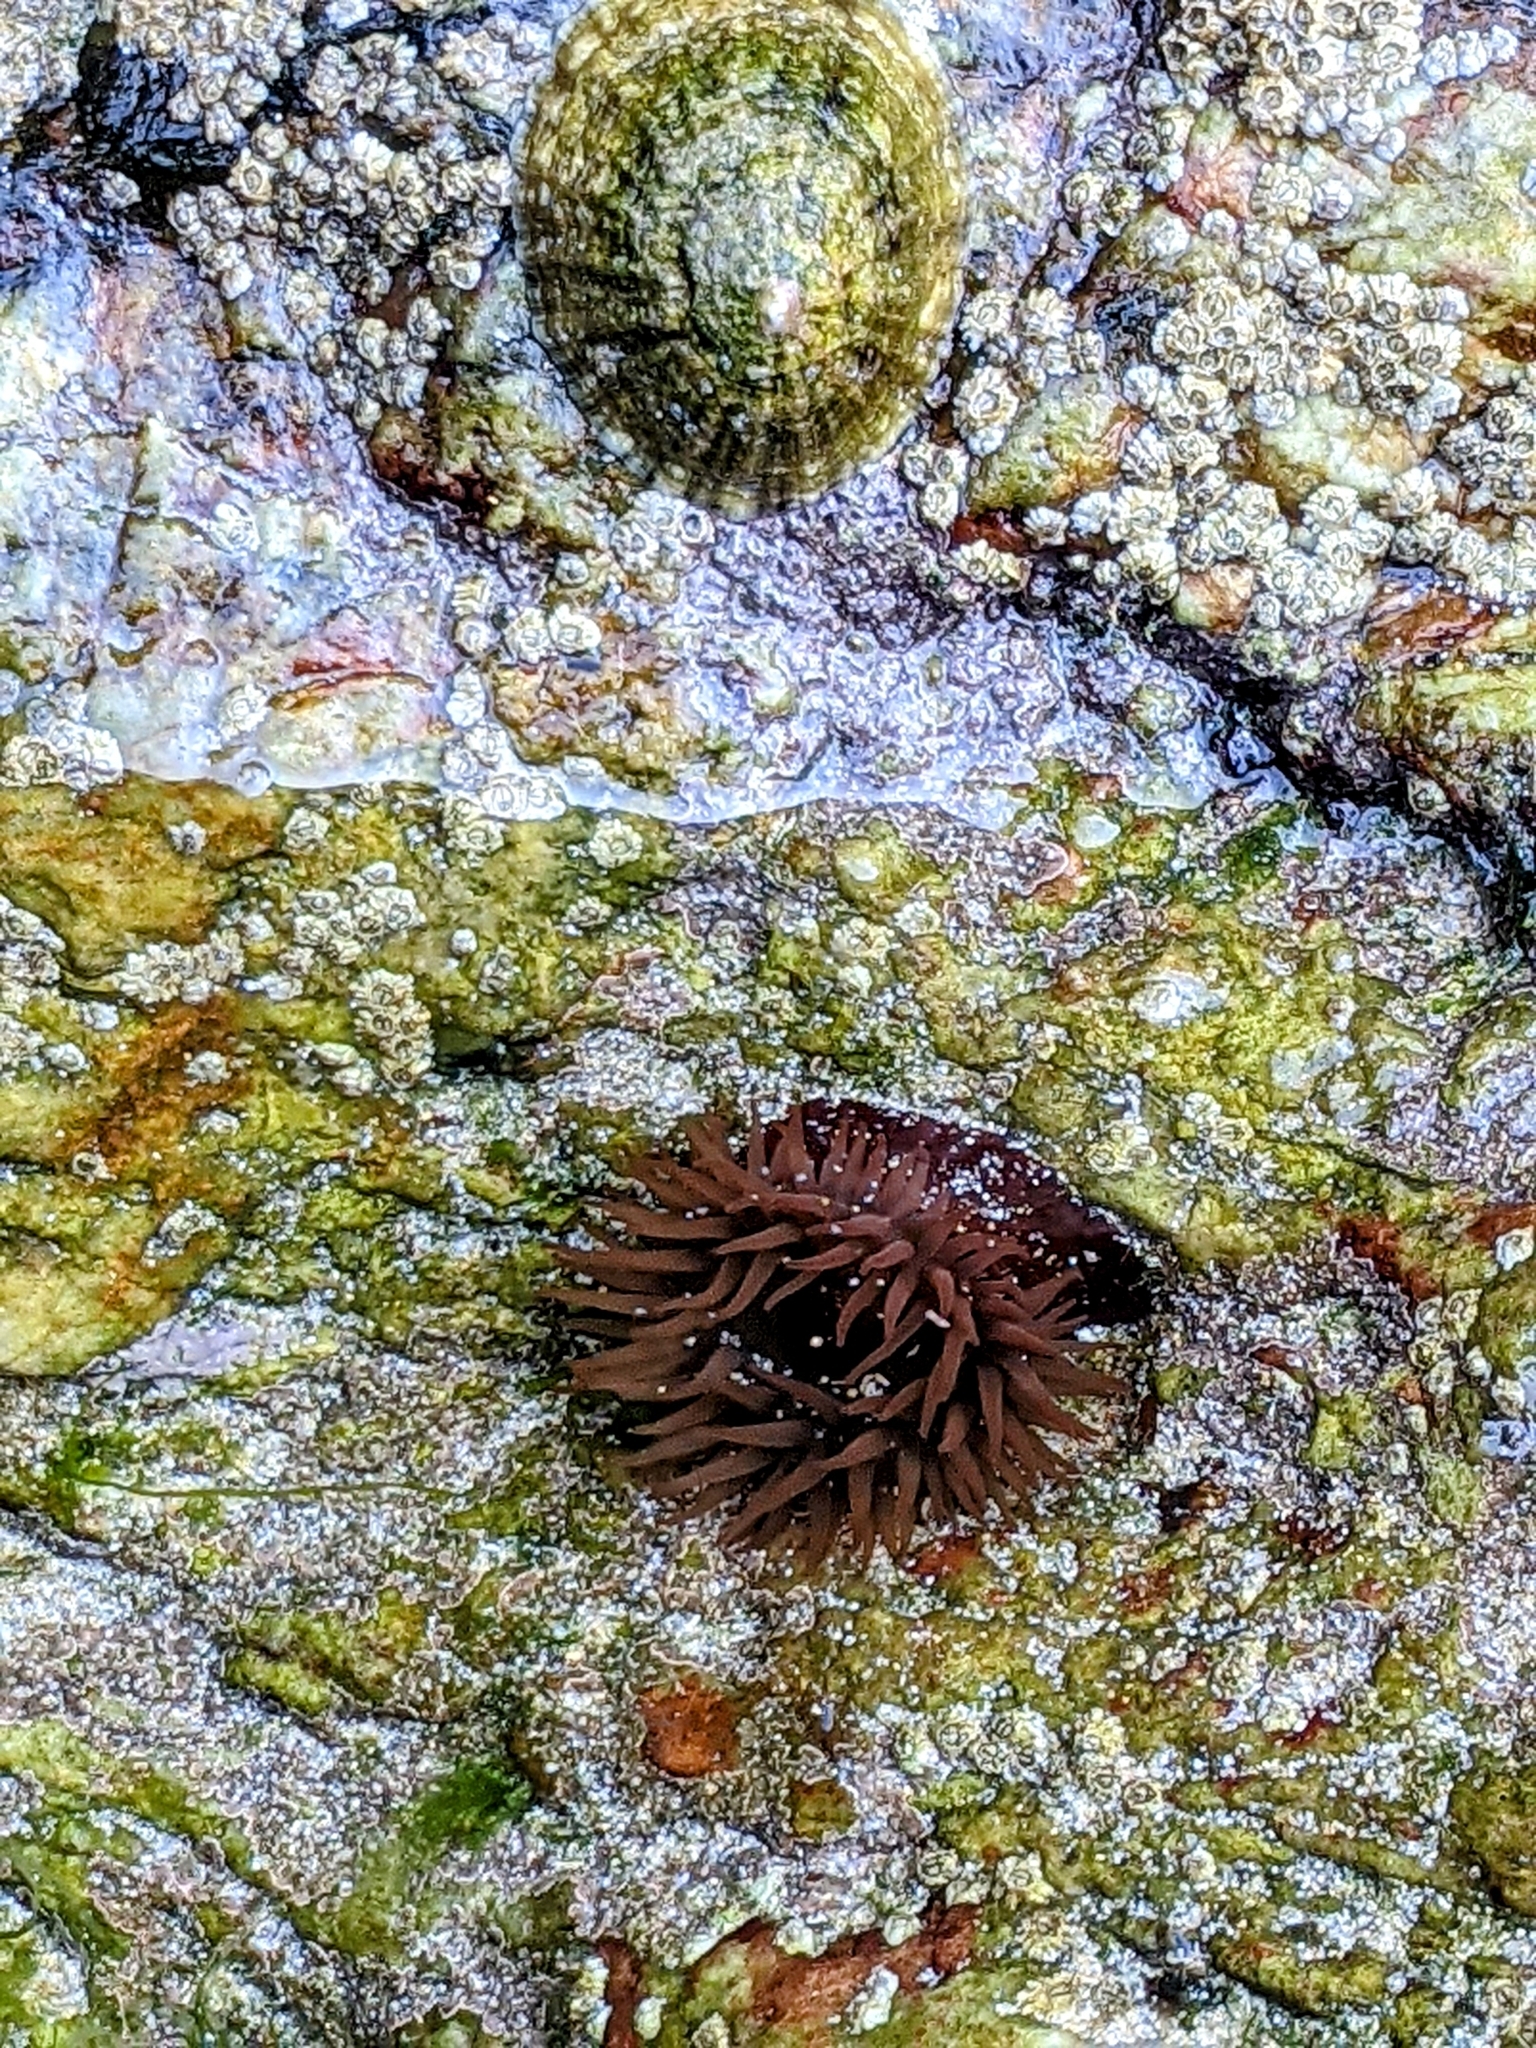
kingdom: Animalia
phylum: Cnidaria
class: Anthozoa
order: Actiniaria
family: Actiniidae
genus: Actinia
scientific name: Actinia equina
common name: Beadlet anemone
